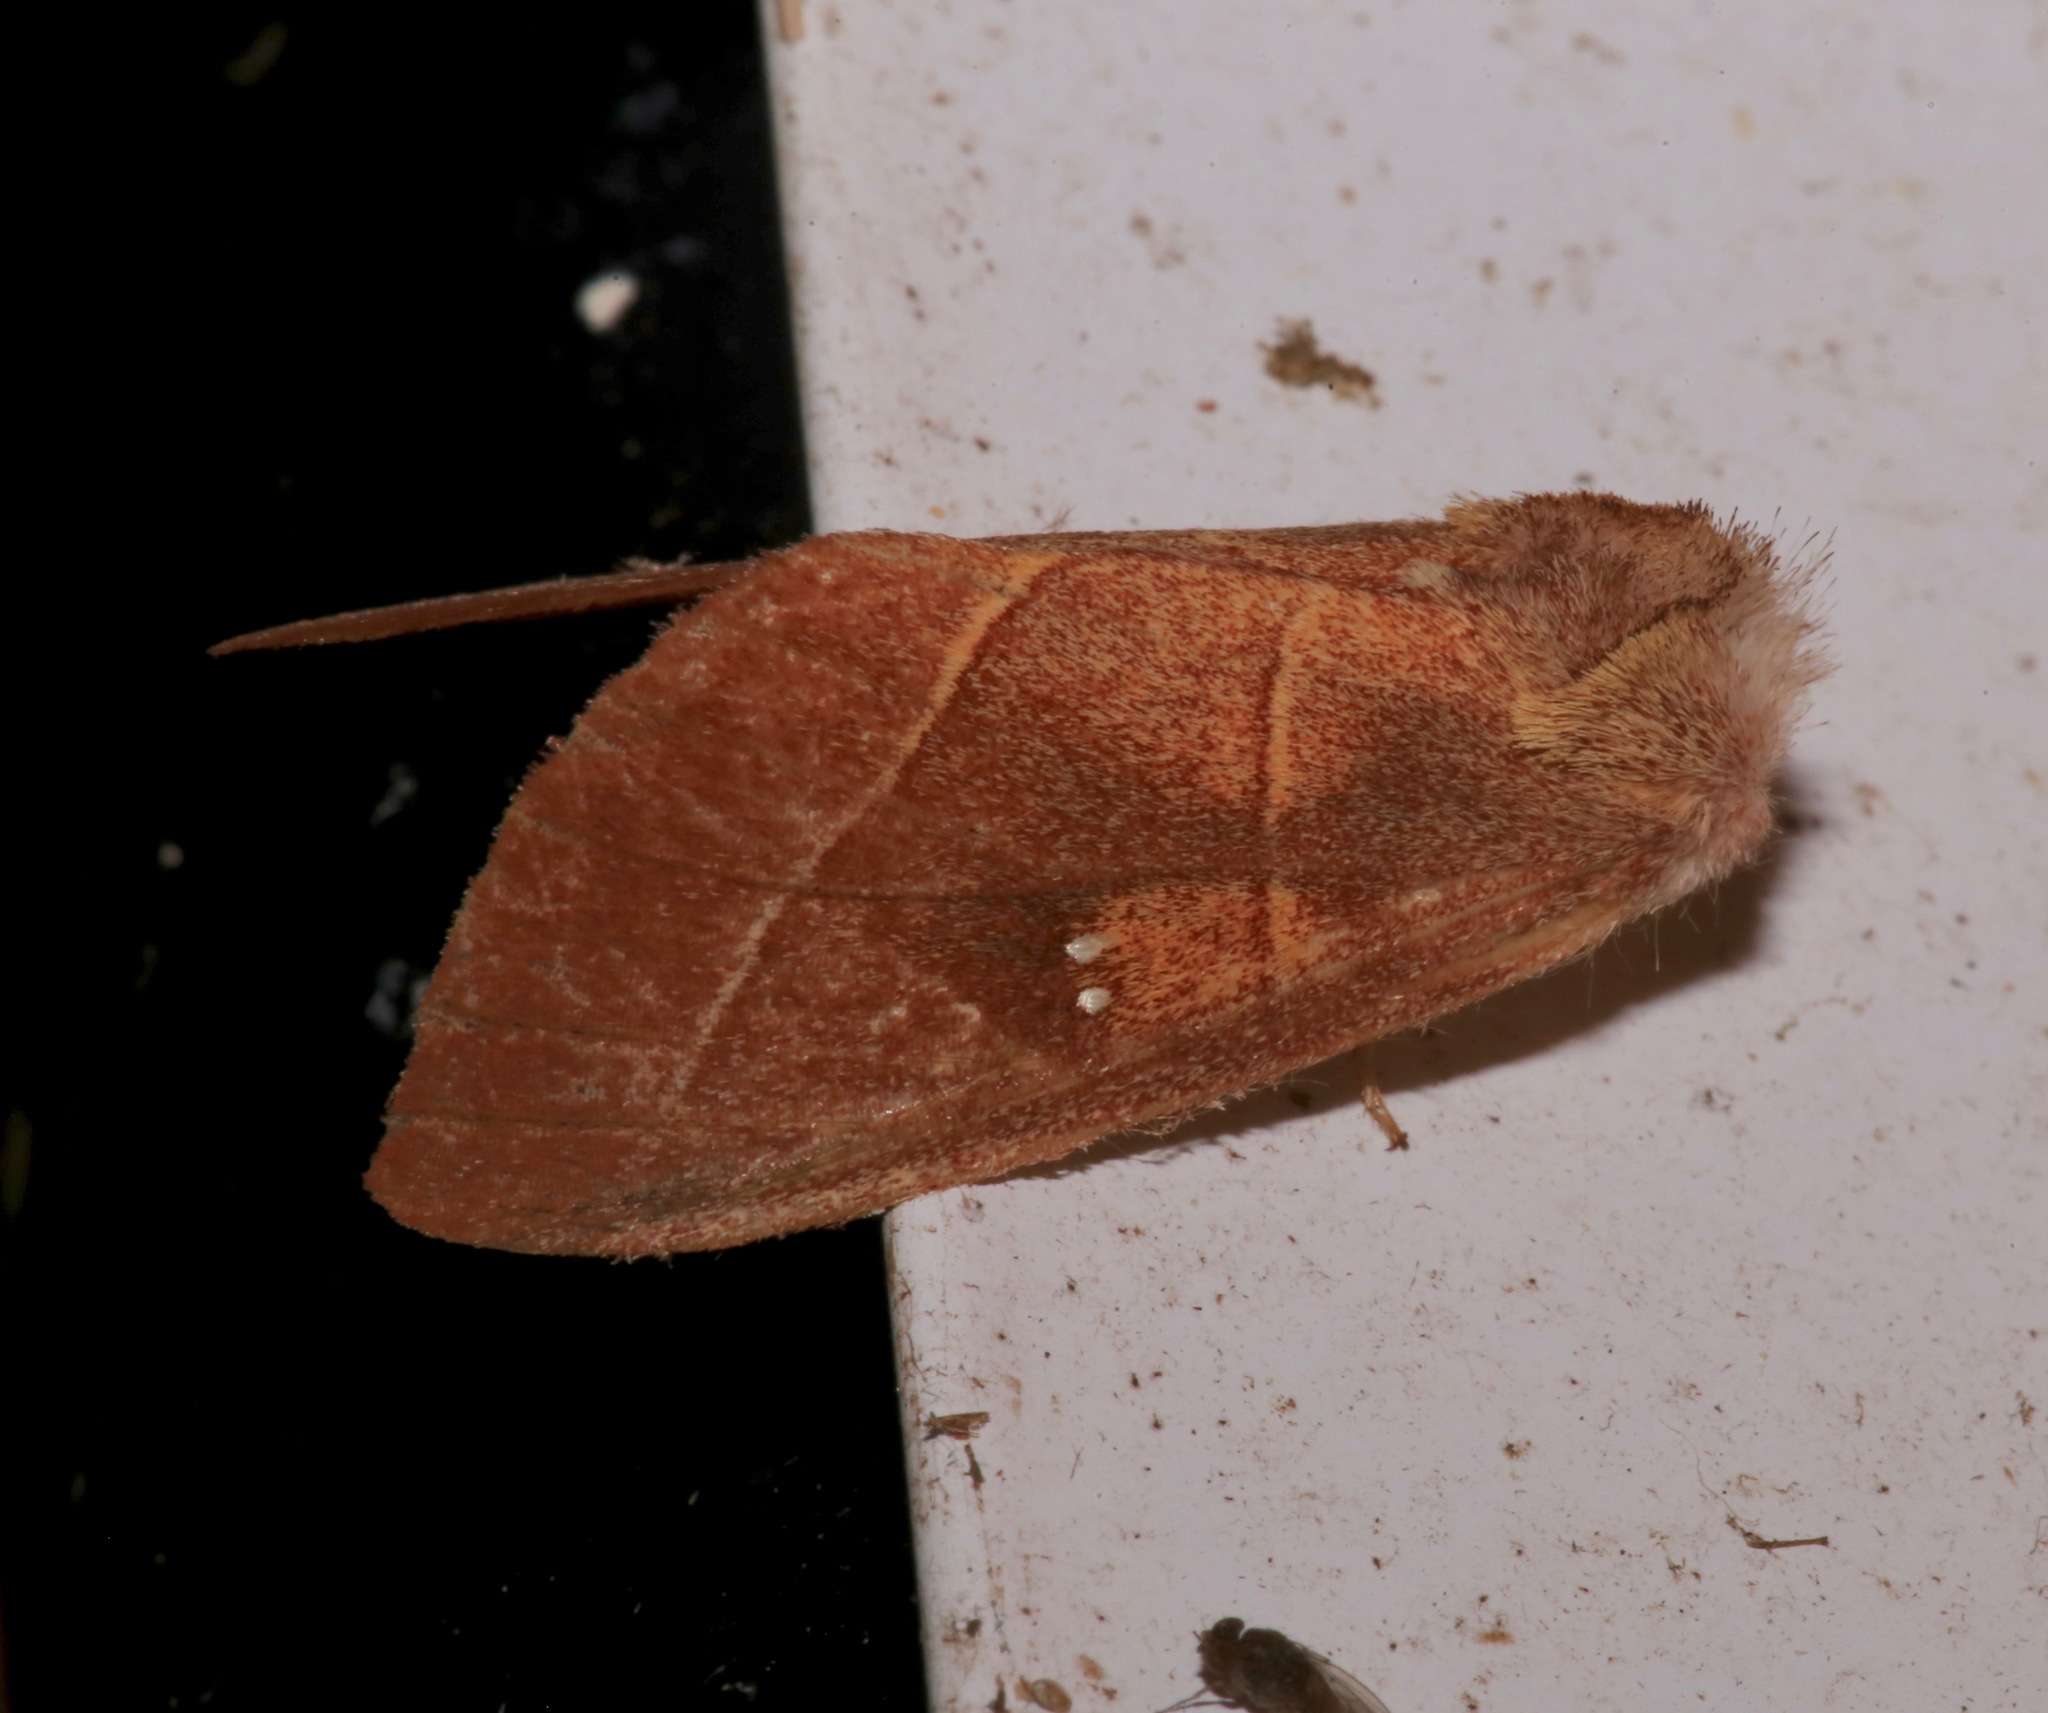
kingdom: Animalia
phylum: Arthropoda
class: Insecta
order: Lepidoptera
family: Notodontidae
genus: Nadata
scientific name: Nadata gibbosa
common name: White-dotted prominent
